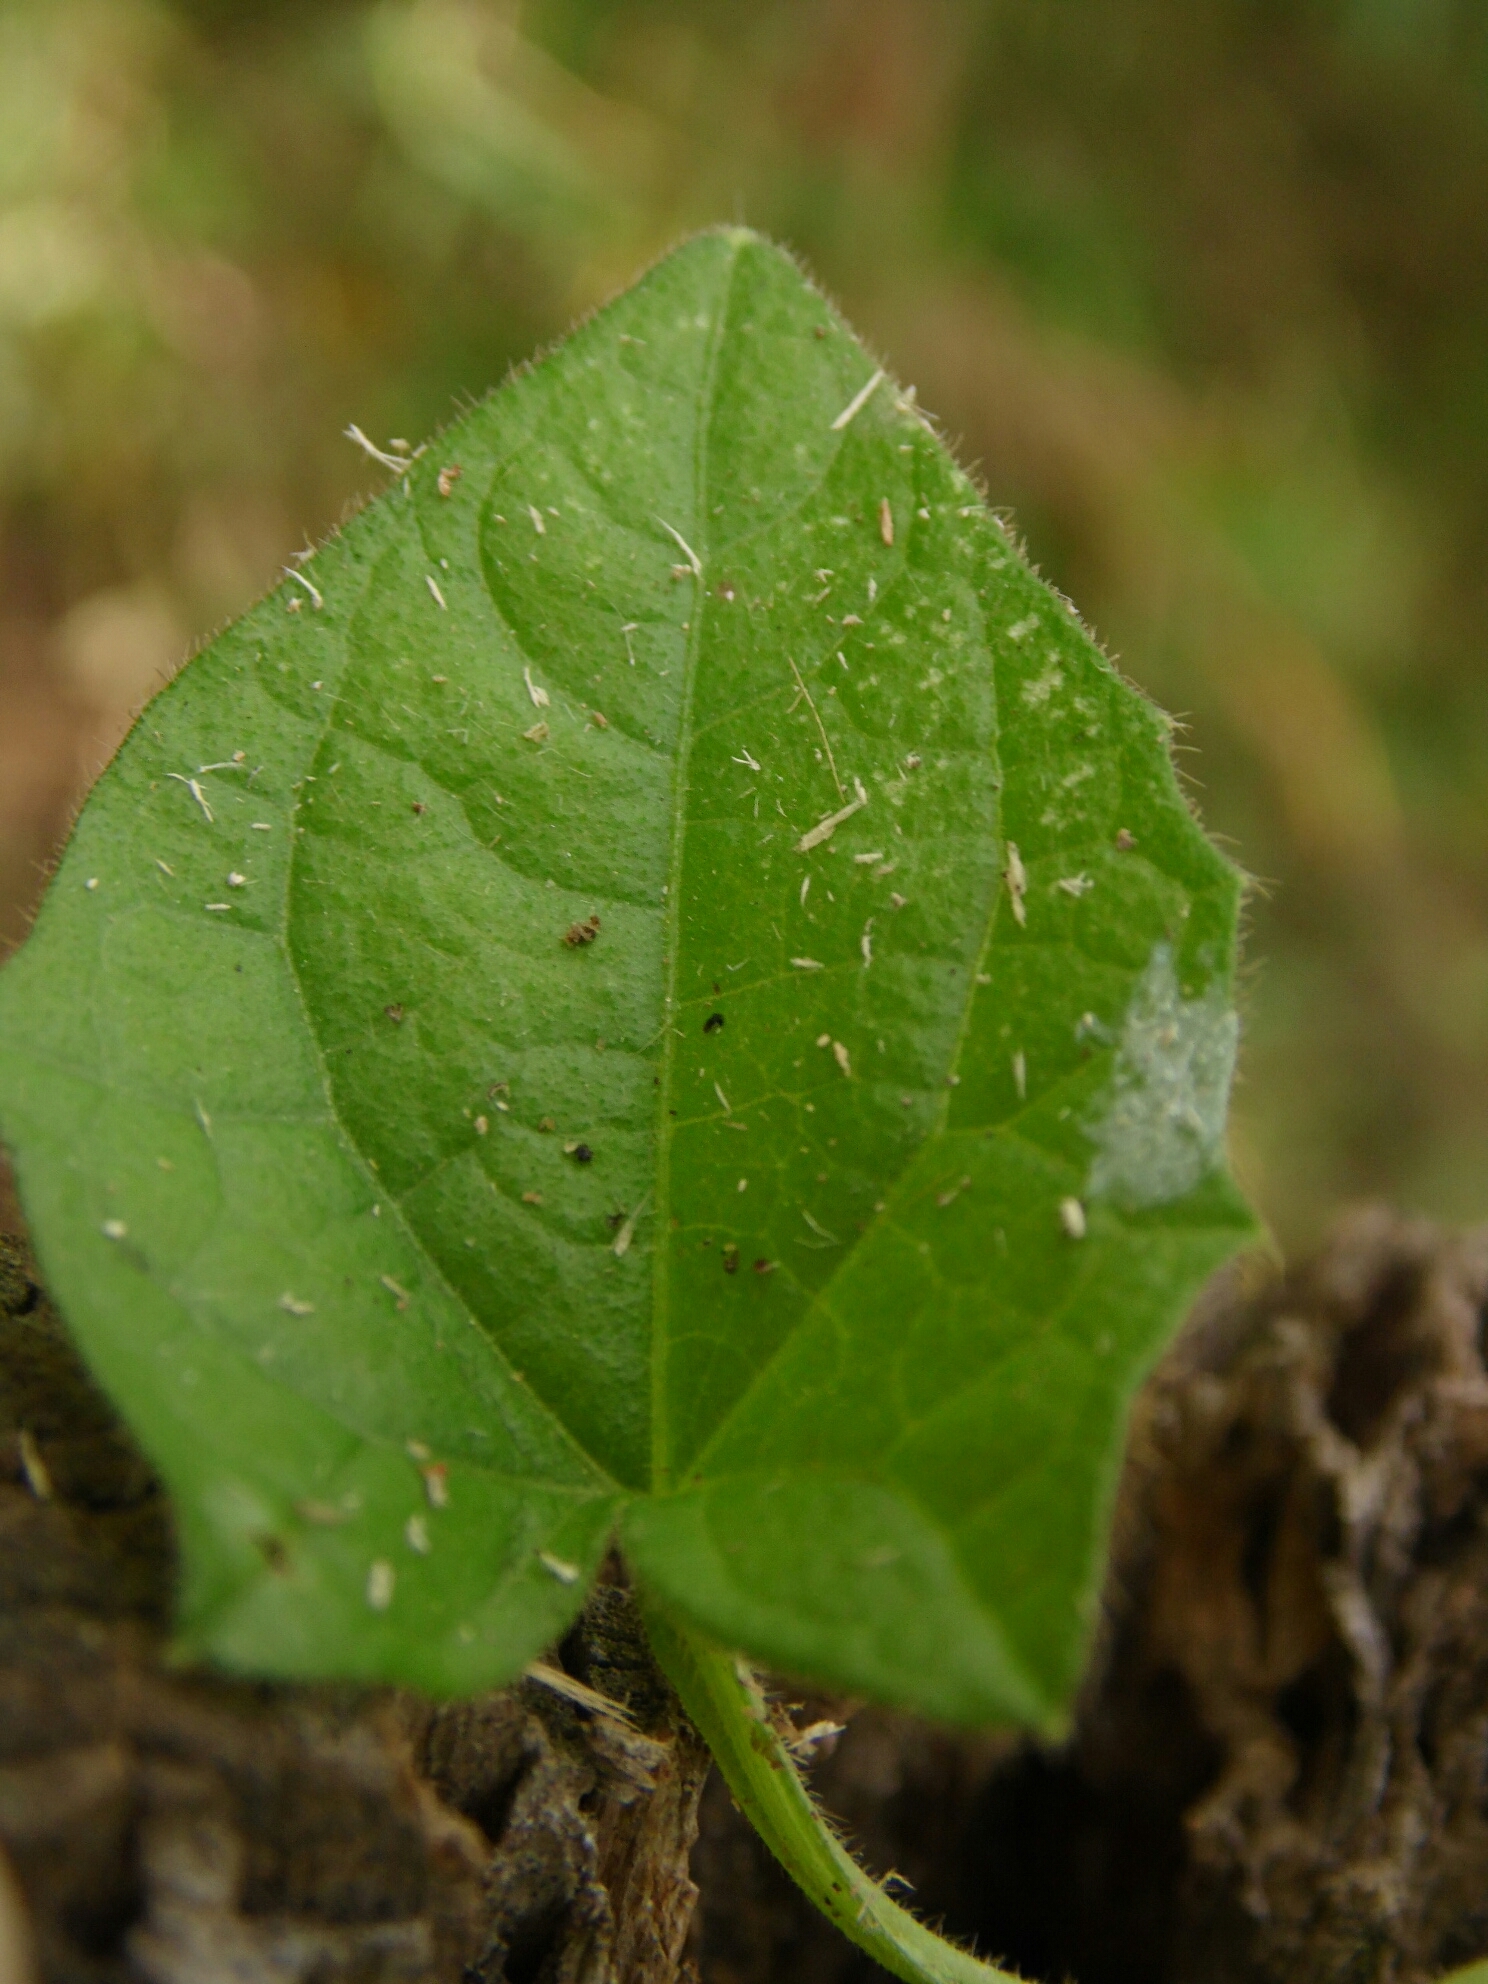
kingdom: Plantae
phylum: Tracheophyta
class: Magnoliopsida
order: Lamiales
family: Acanthaceae
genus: Thunbergia
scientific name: Thunbergia alata
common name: Blackeyed susan vine
